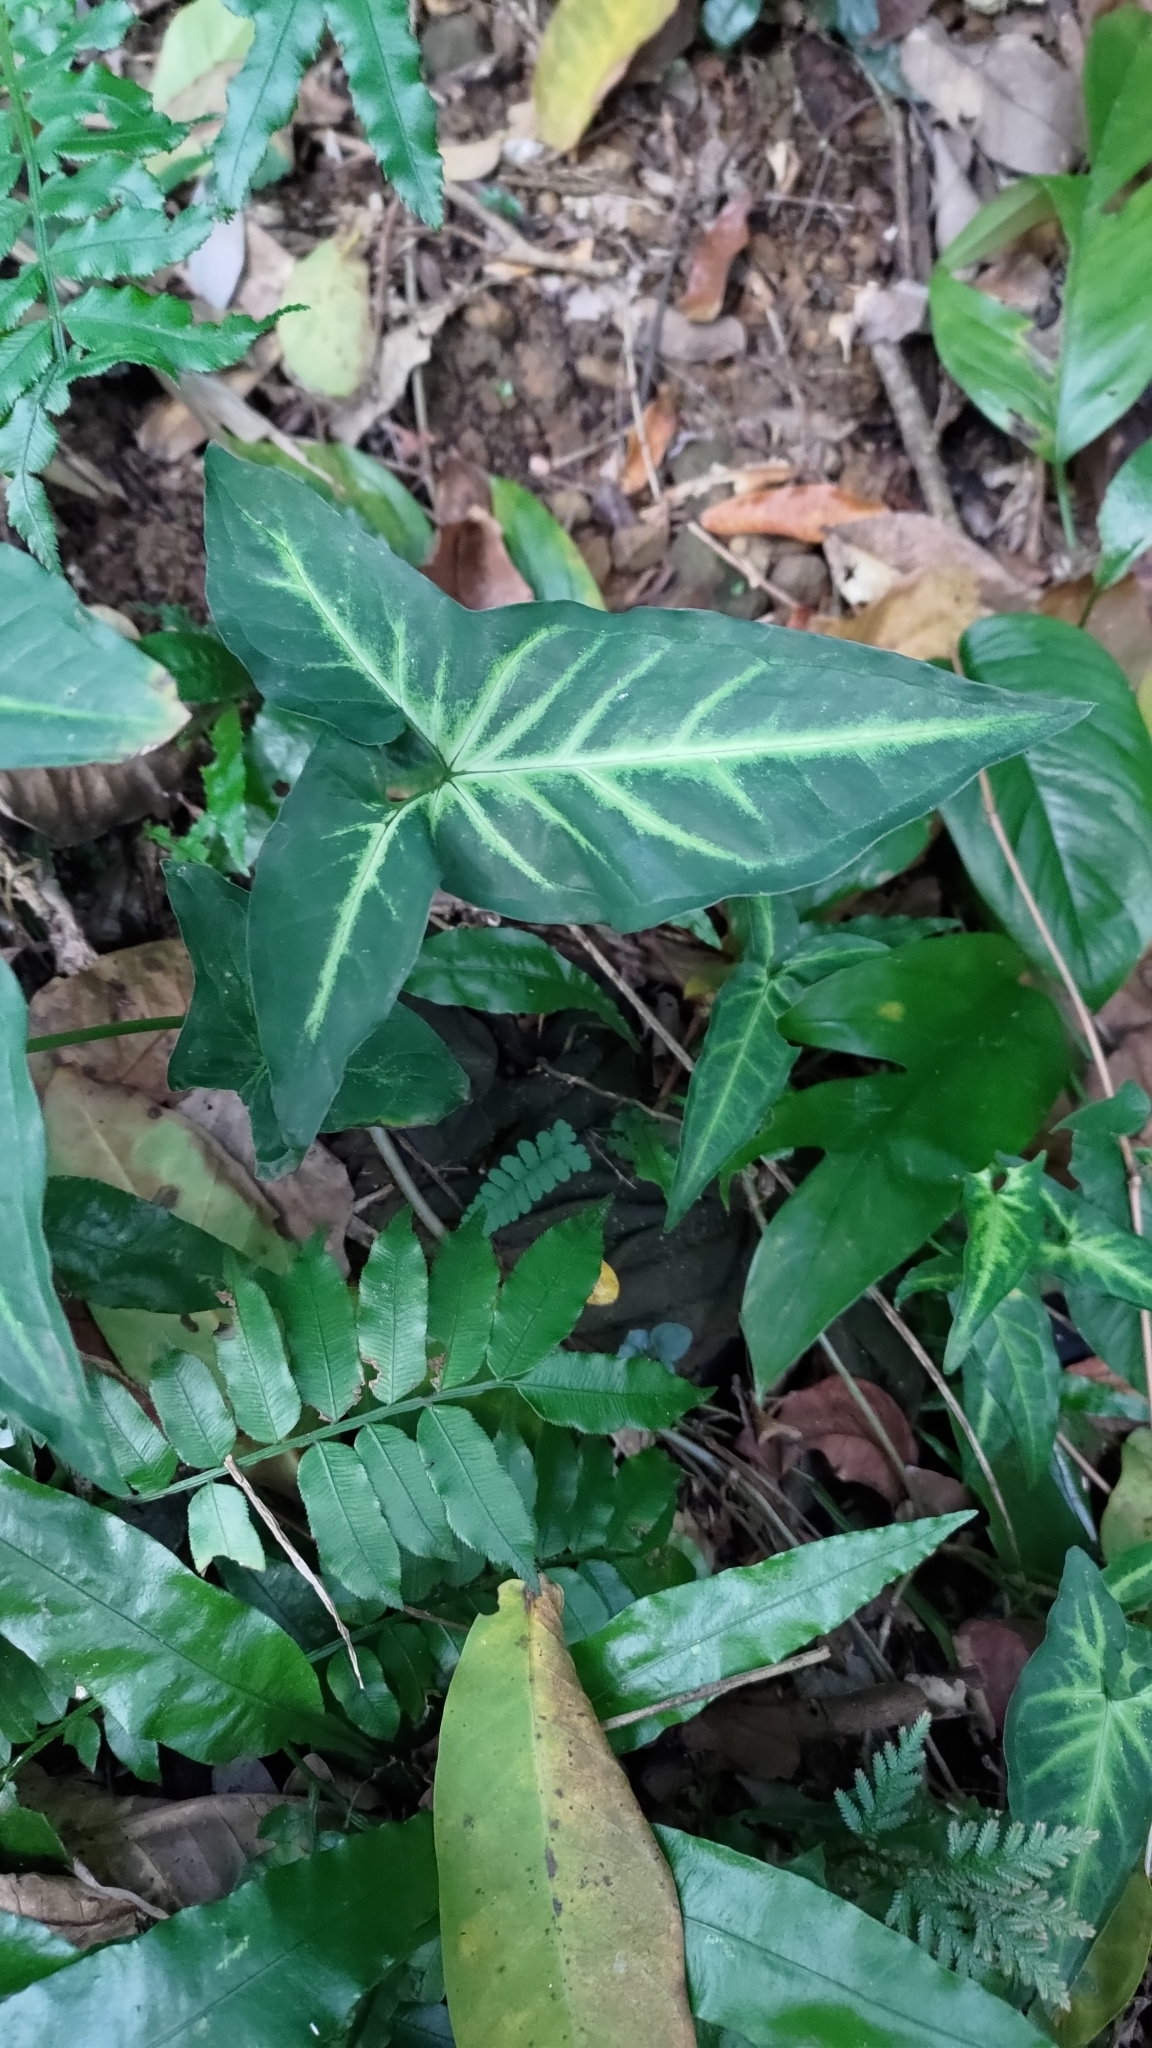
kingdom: Plantae
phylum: Tracheophyta
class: Liliopsida
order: Alismatales
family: Araceae
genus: Syngonium
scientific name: Syngonium podophyllum
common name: American evergreen
